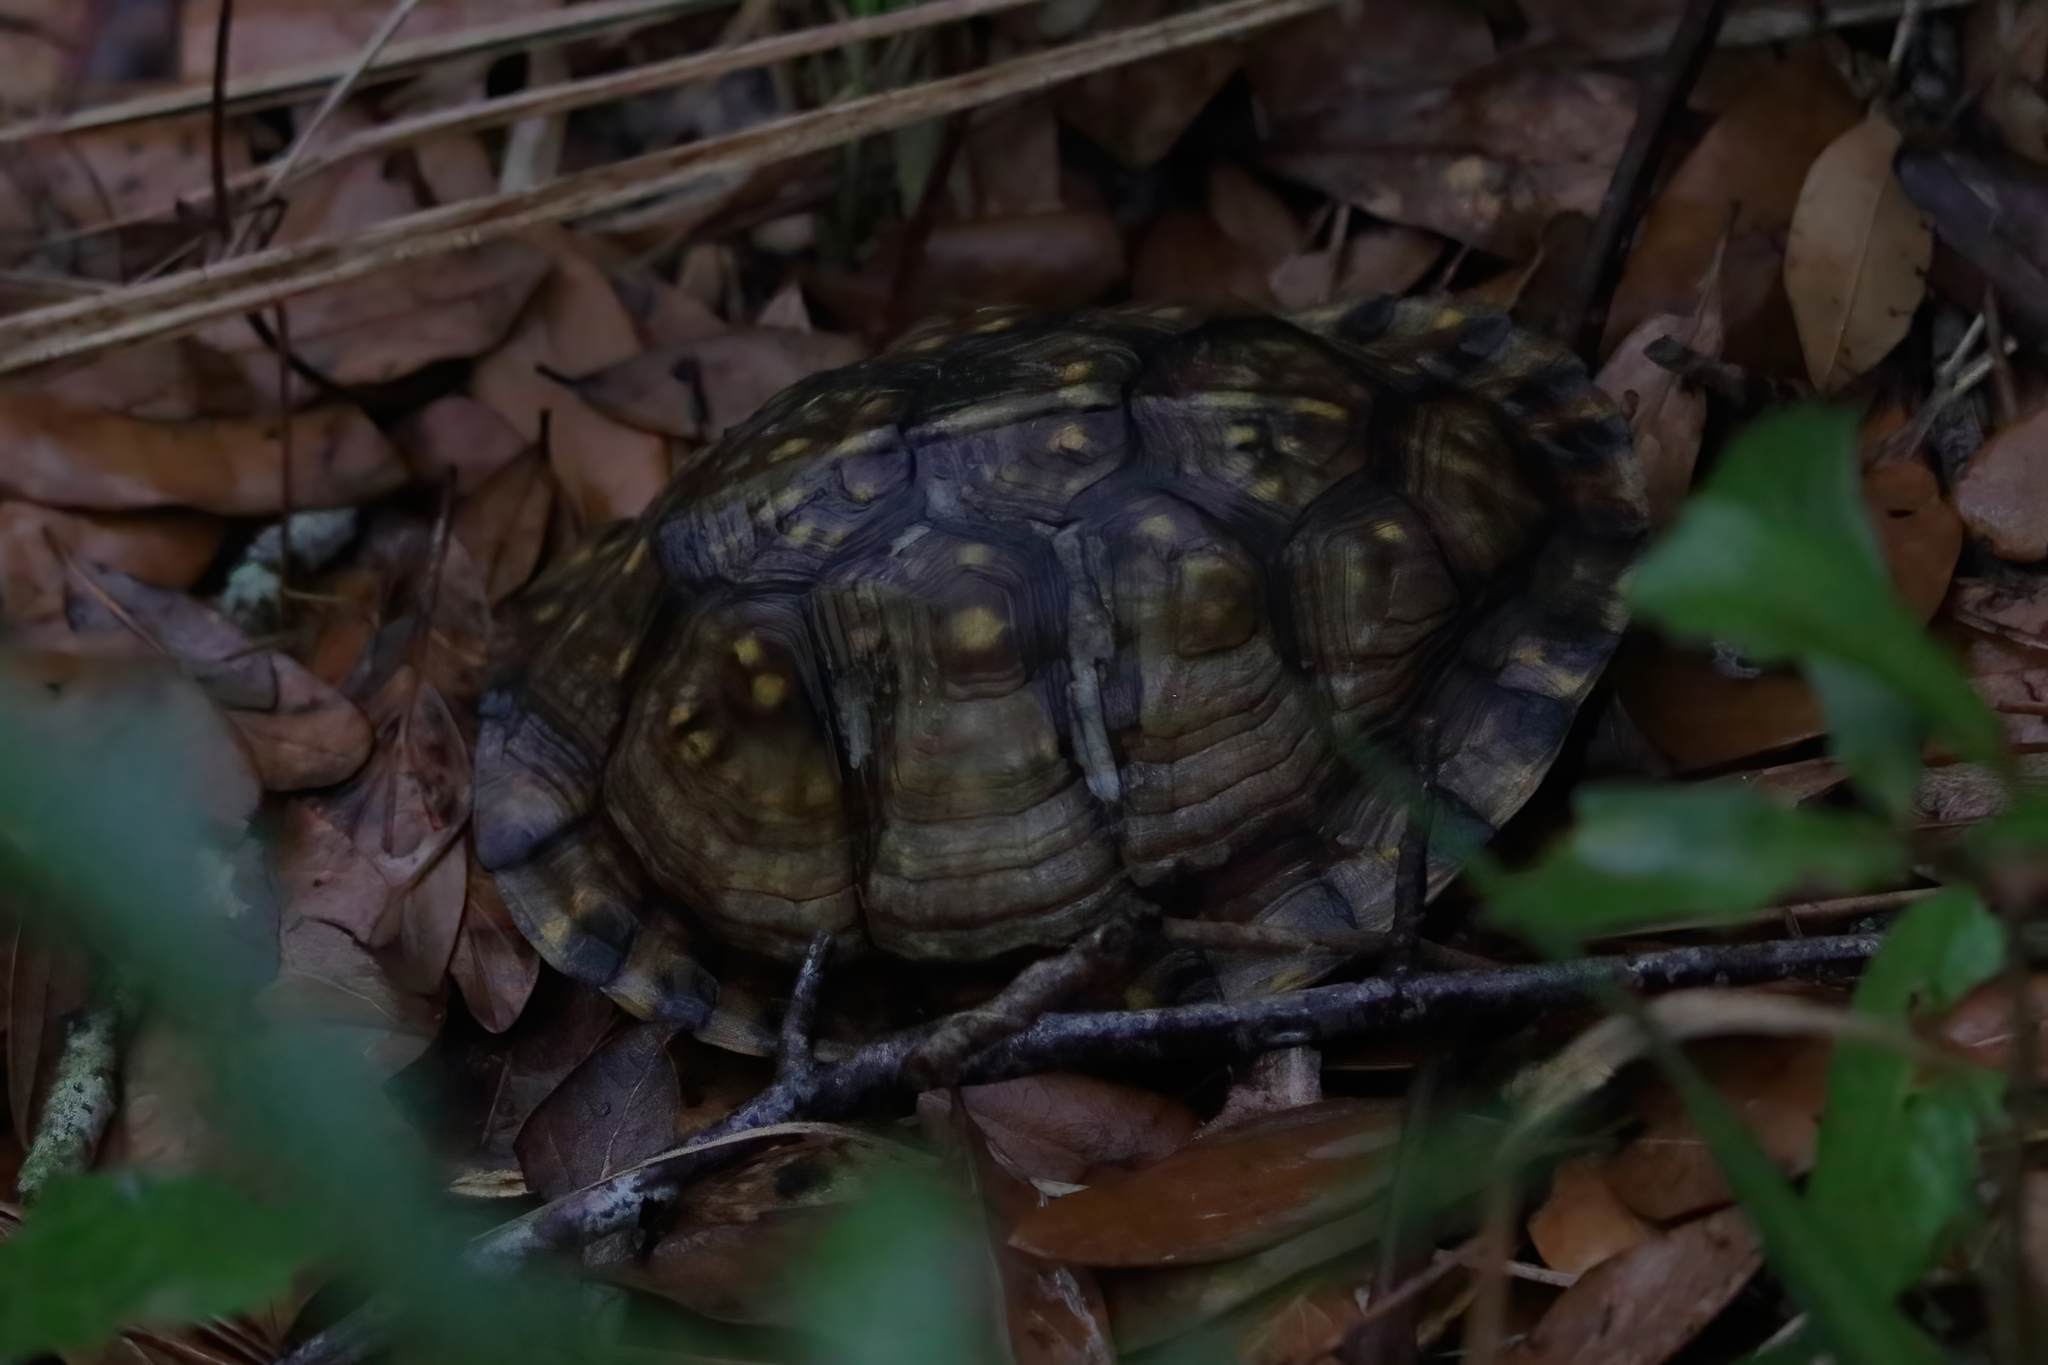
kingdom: Animalia
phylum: Chordata
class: Testudines
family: Emydidae
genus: Terrapene
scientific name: Terrapene carolina
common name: Common box turtle
